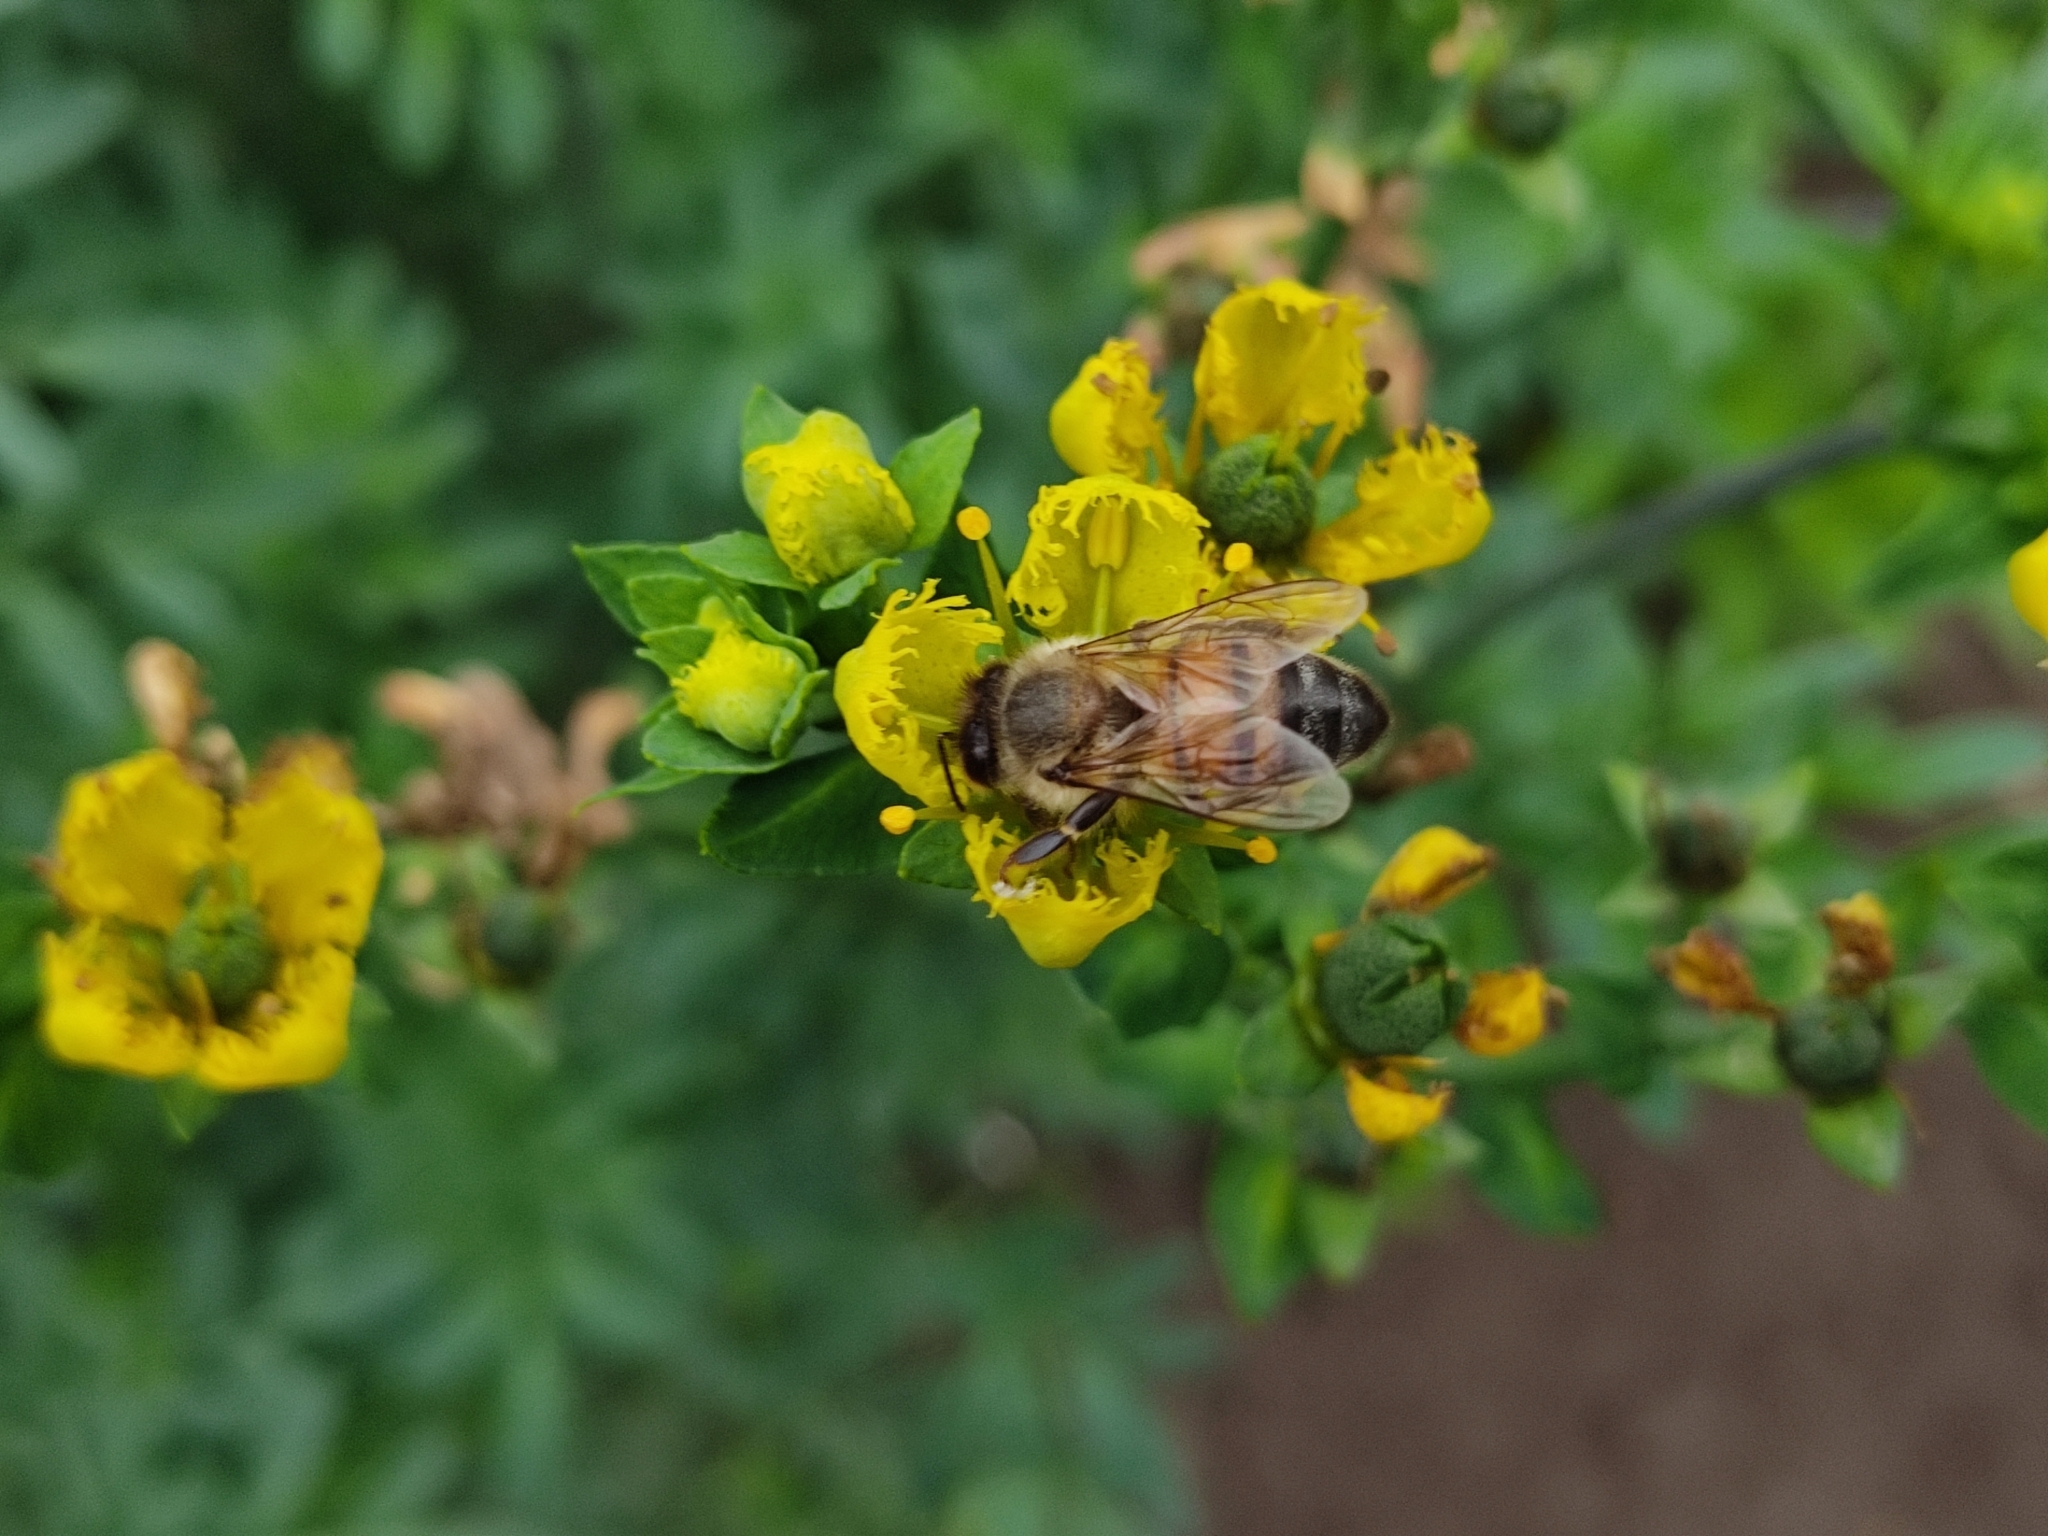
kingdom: Animalia
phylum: Arthropoda
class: Insecta
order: Hymenoptera
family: Apidae
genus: Apis
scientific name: Apis mellifera
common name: Honey bee
